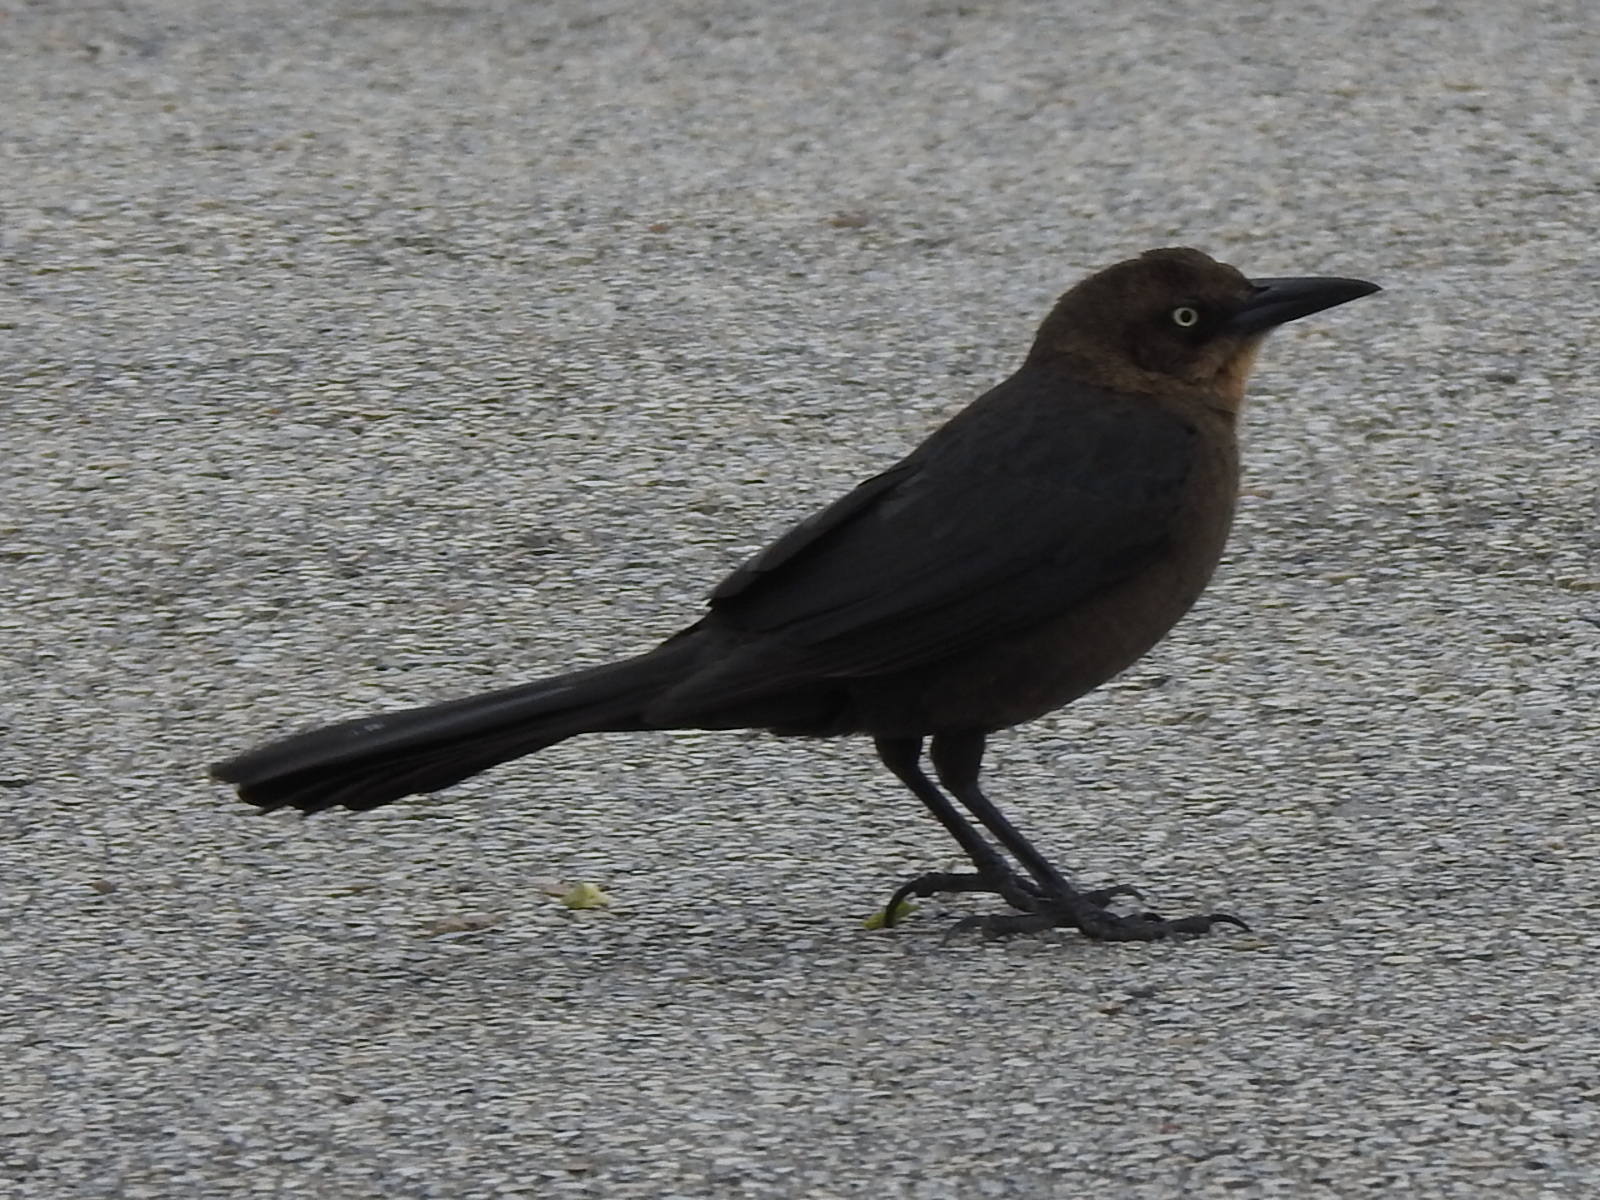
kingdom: Animalia
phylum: Chordata
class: Aves
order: Passeriformes
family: Icteridae
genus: Quiscalus
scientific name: Quiscalus mexicanus
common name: Great-tailed grackle
